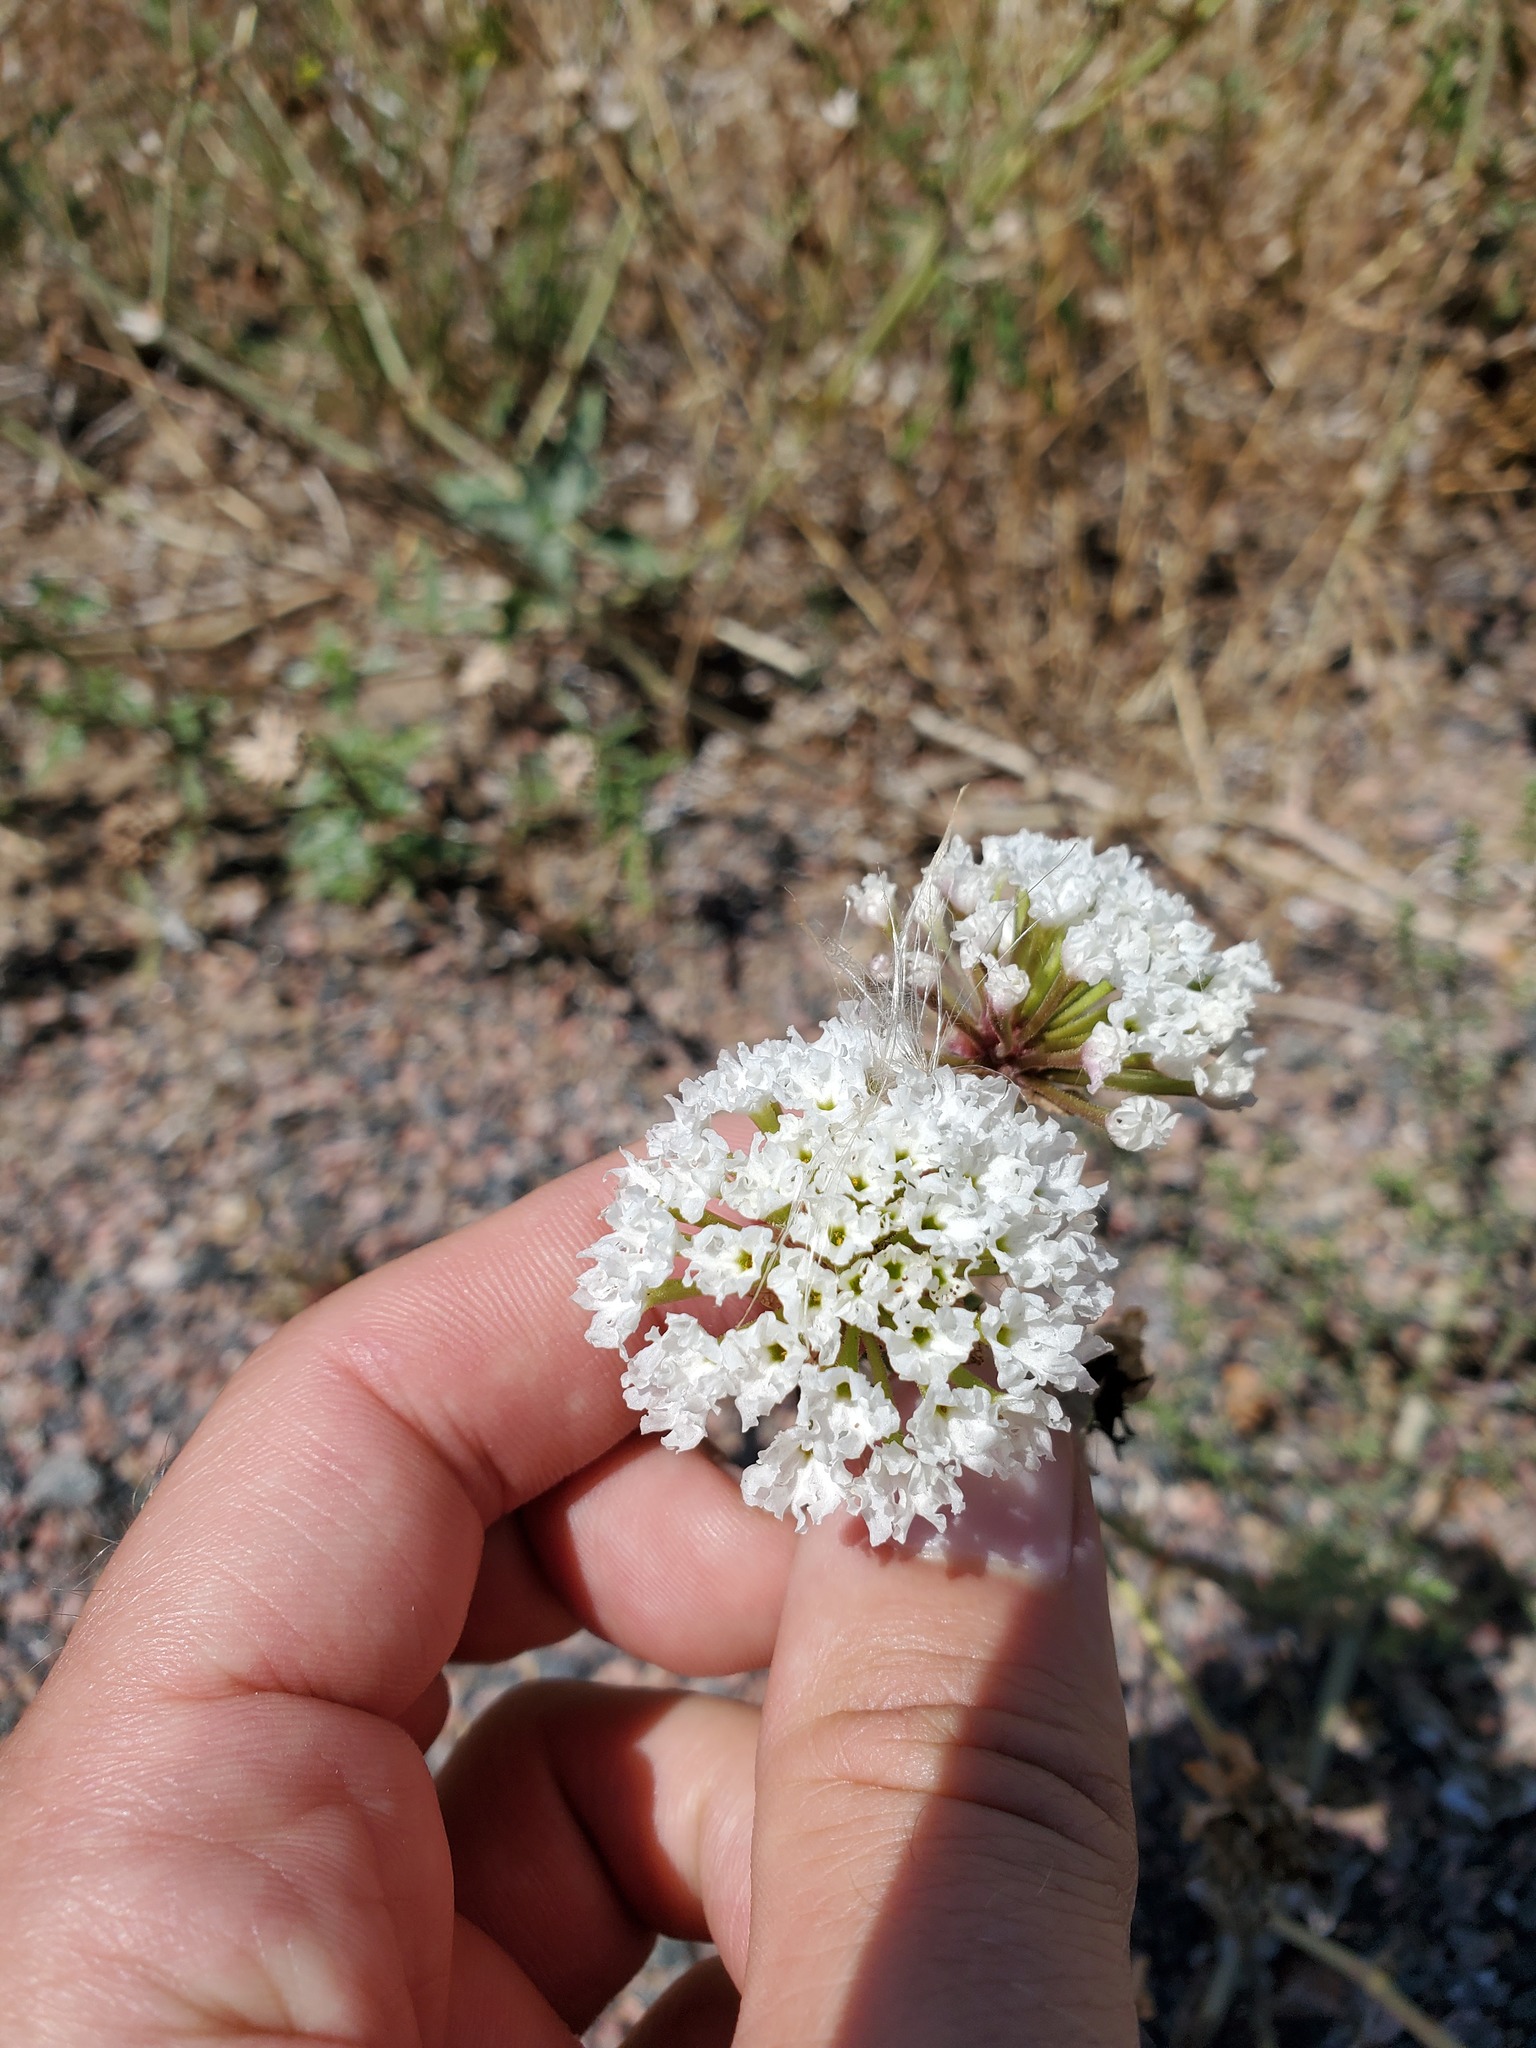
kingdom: Plantae
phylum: Tracheophyta
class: Magnoliopsida
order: Caryophyllales
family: Nyctaginaceae
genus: Abronia
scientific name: Abronia fragrans
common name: Fragrant sand-verbena
